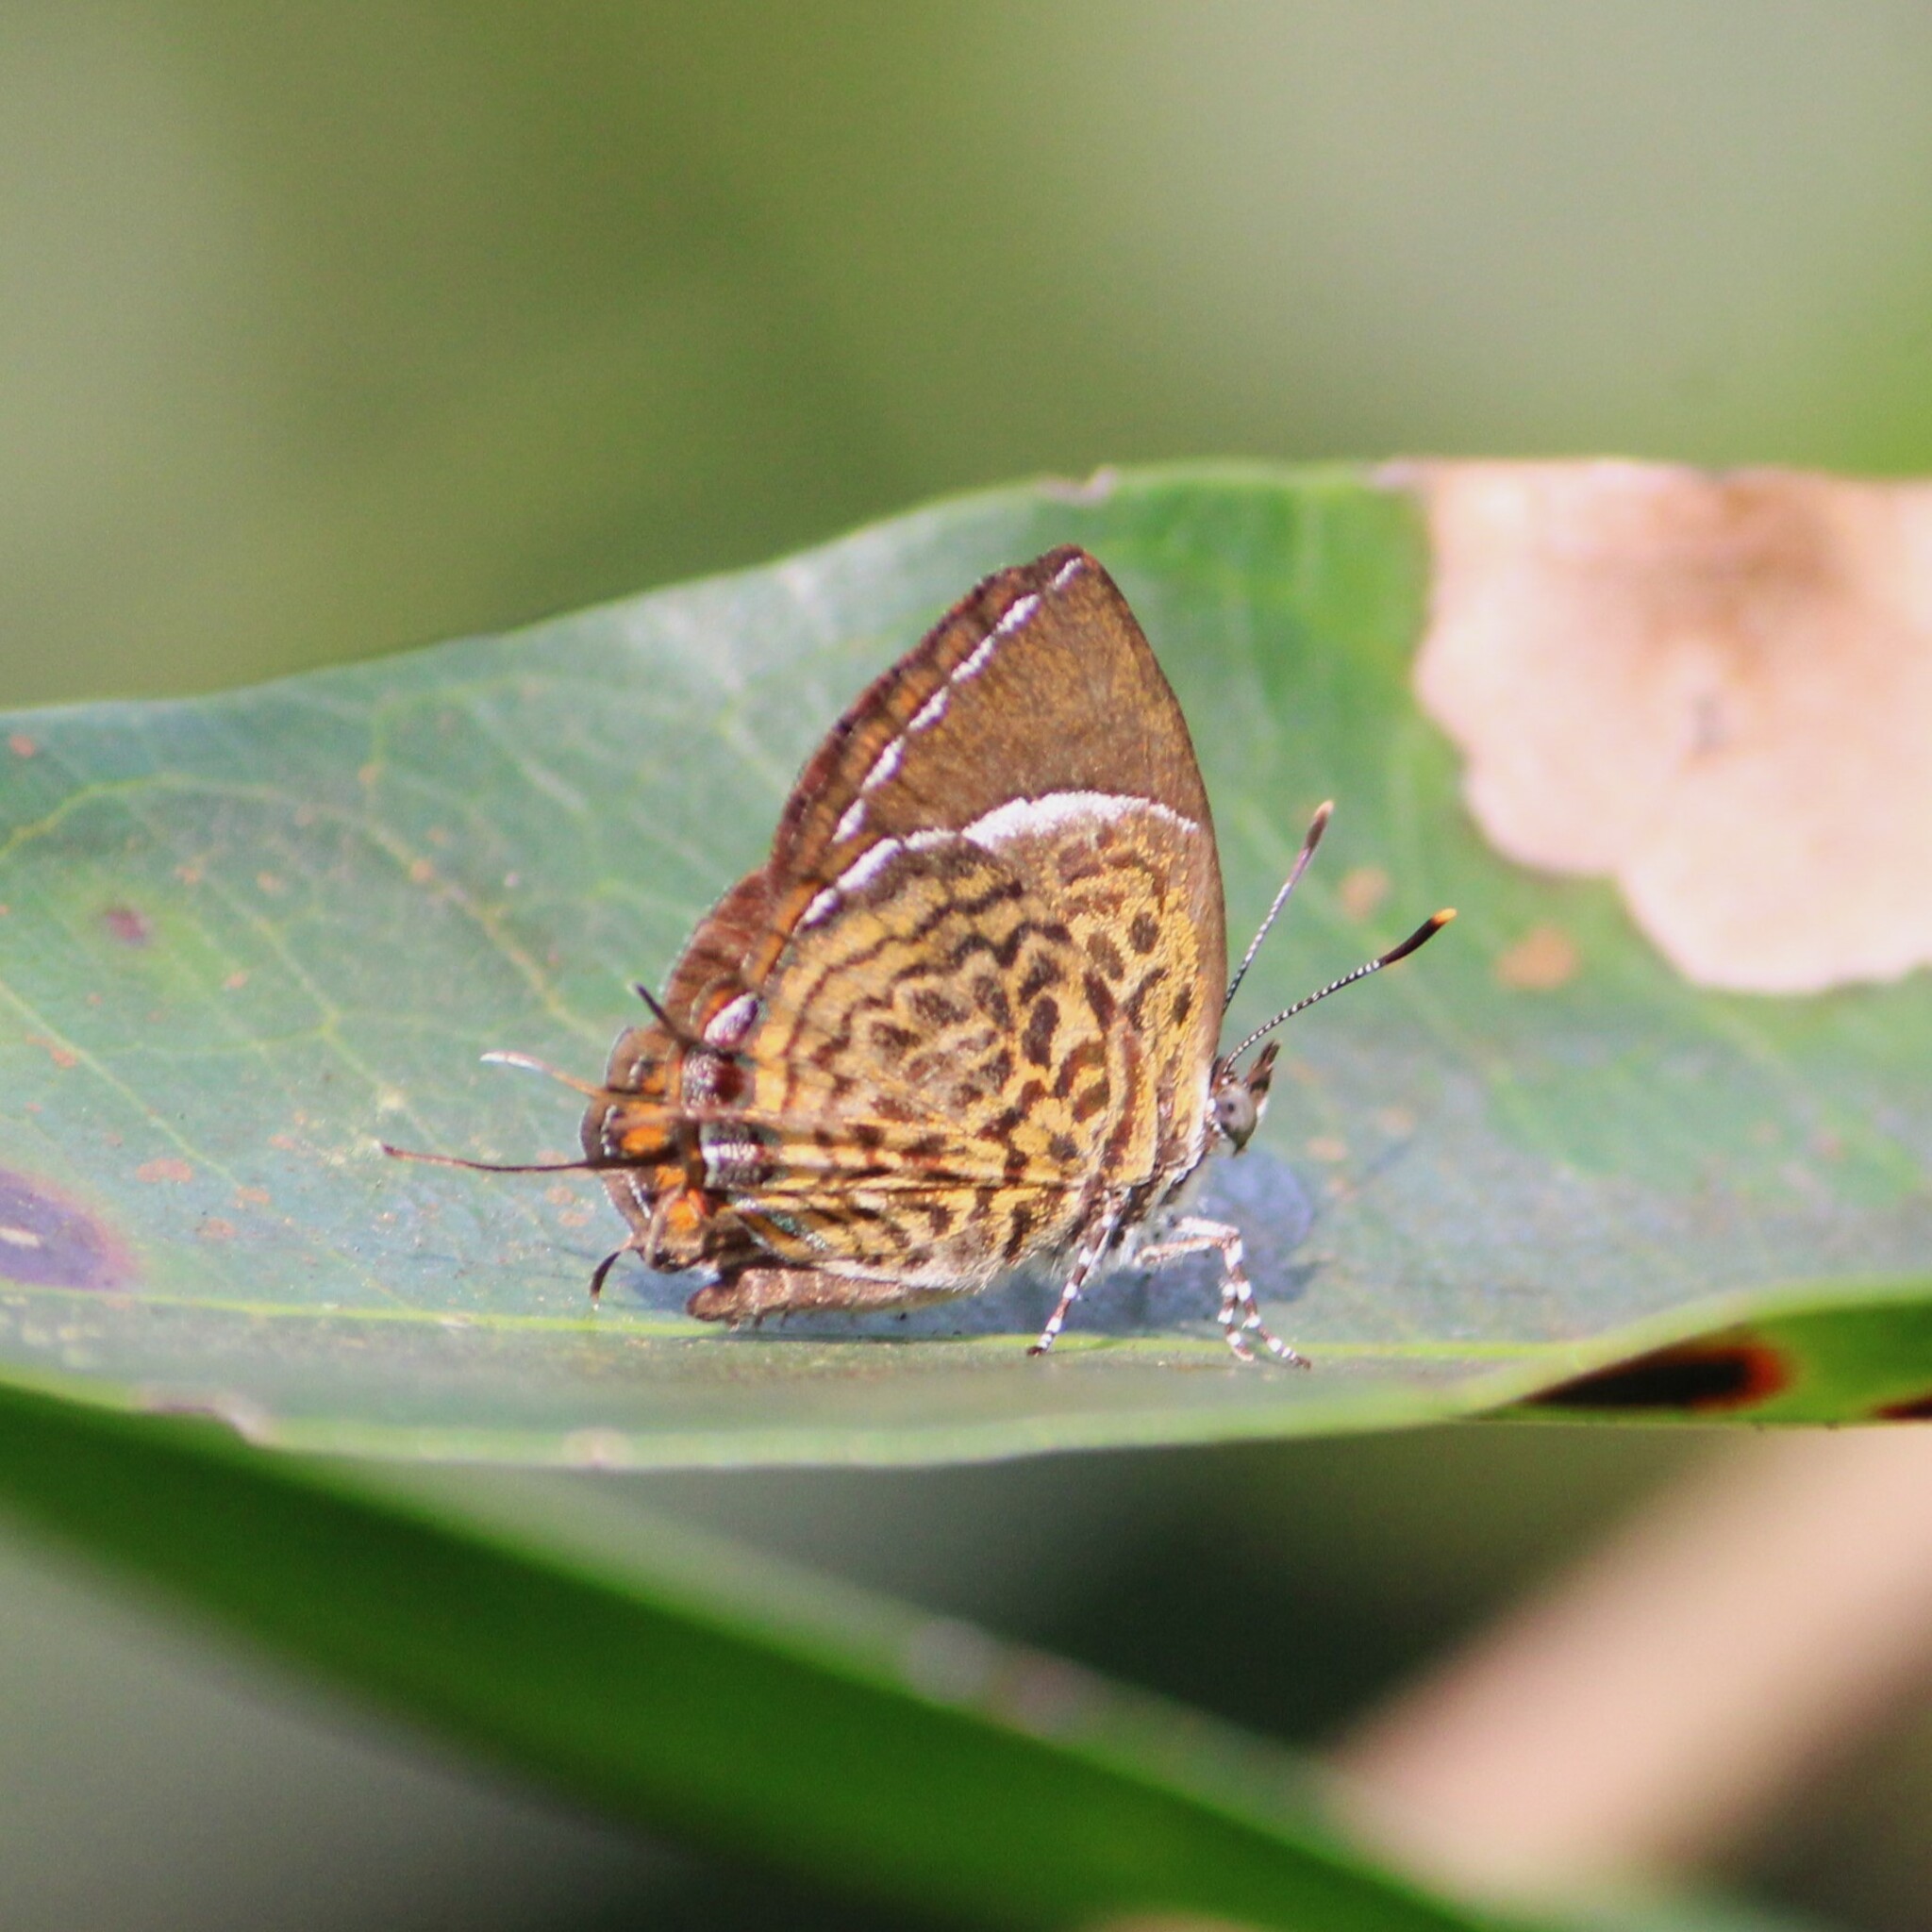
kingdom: Animalia
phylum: Arthropoda
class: Insecta
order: Lepidoptera
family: Lycaenidae
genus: Rathinda
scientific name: Rathinda amor
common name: Monkey puzzle
